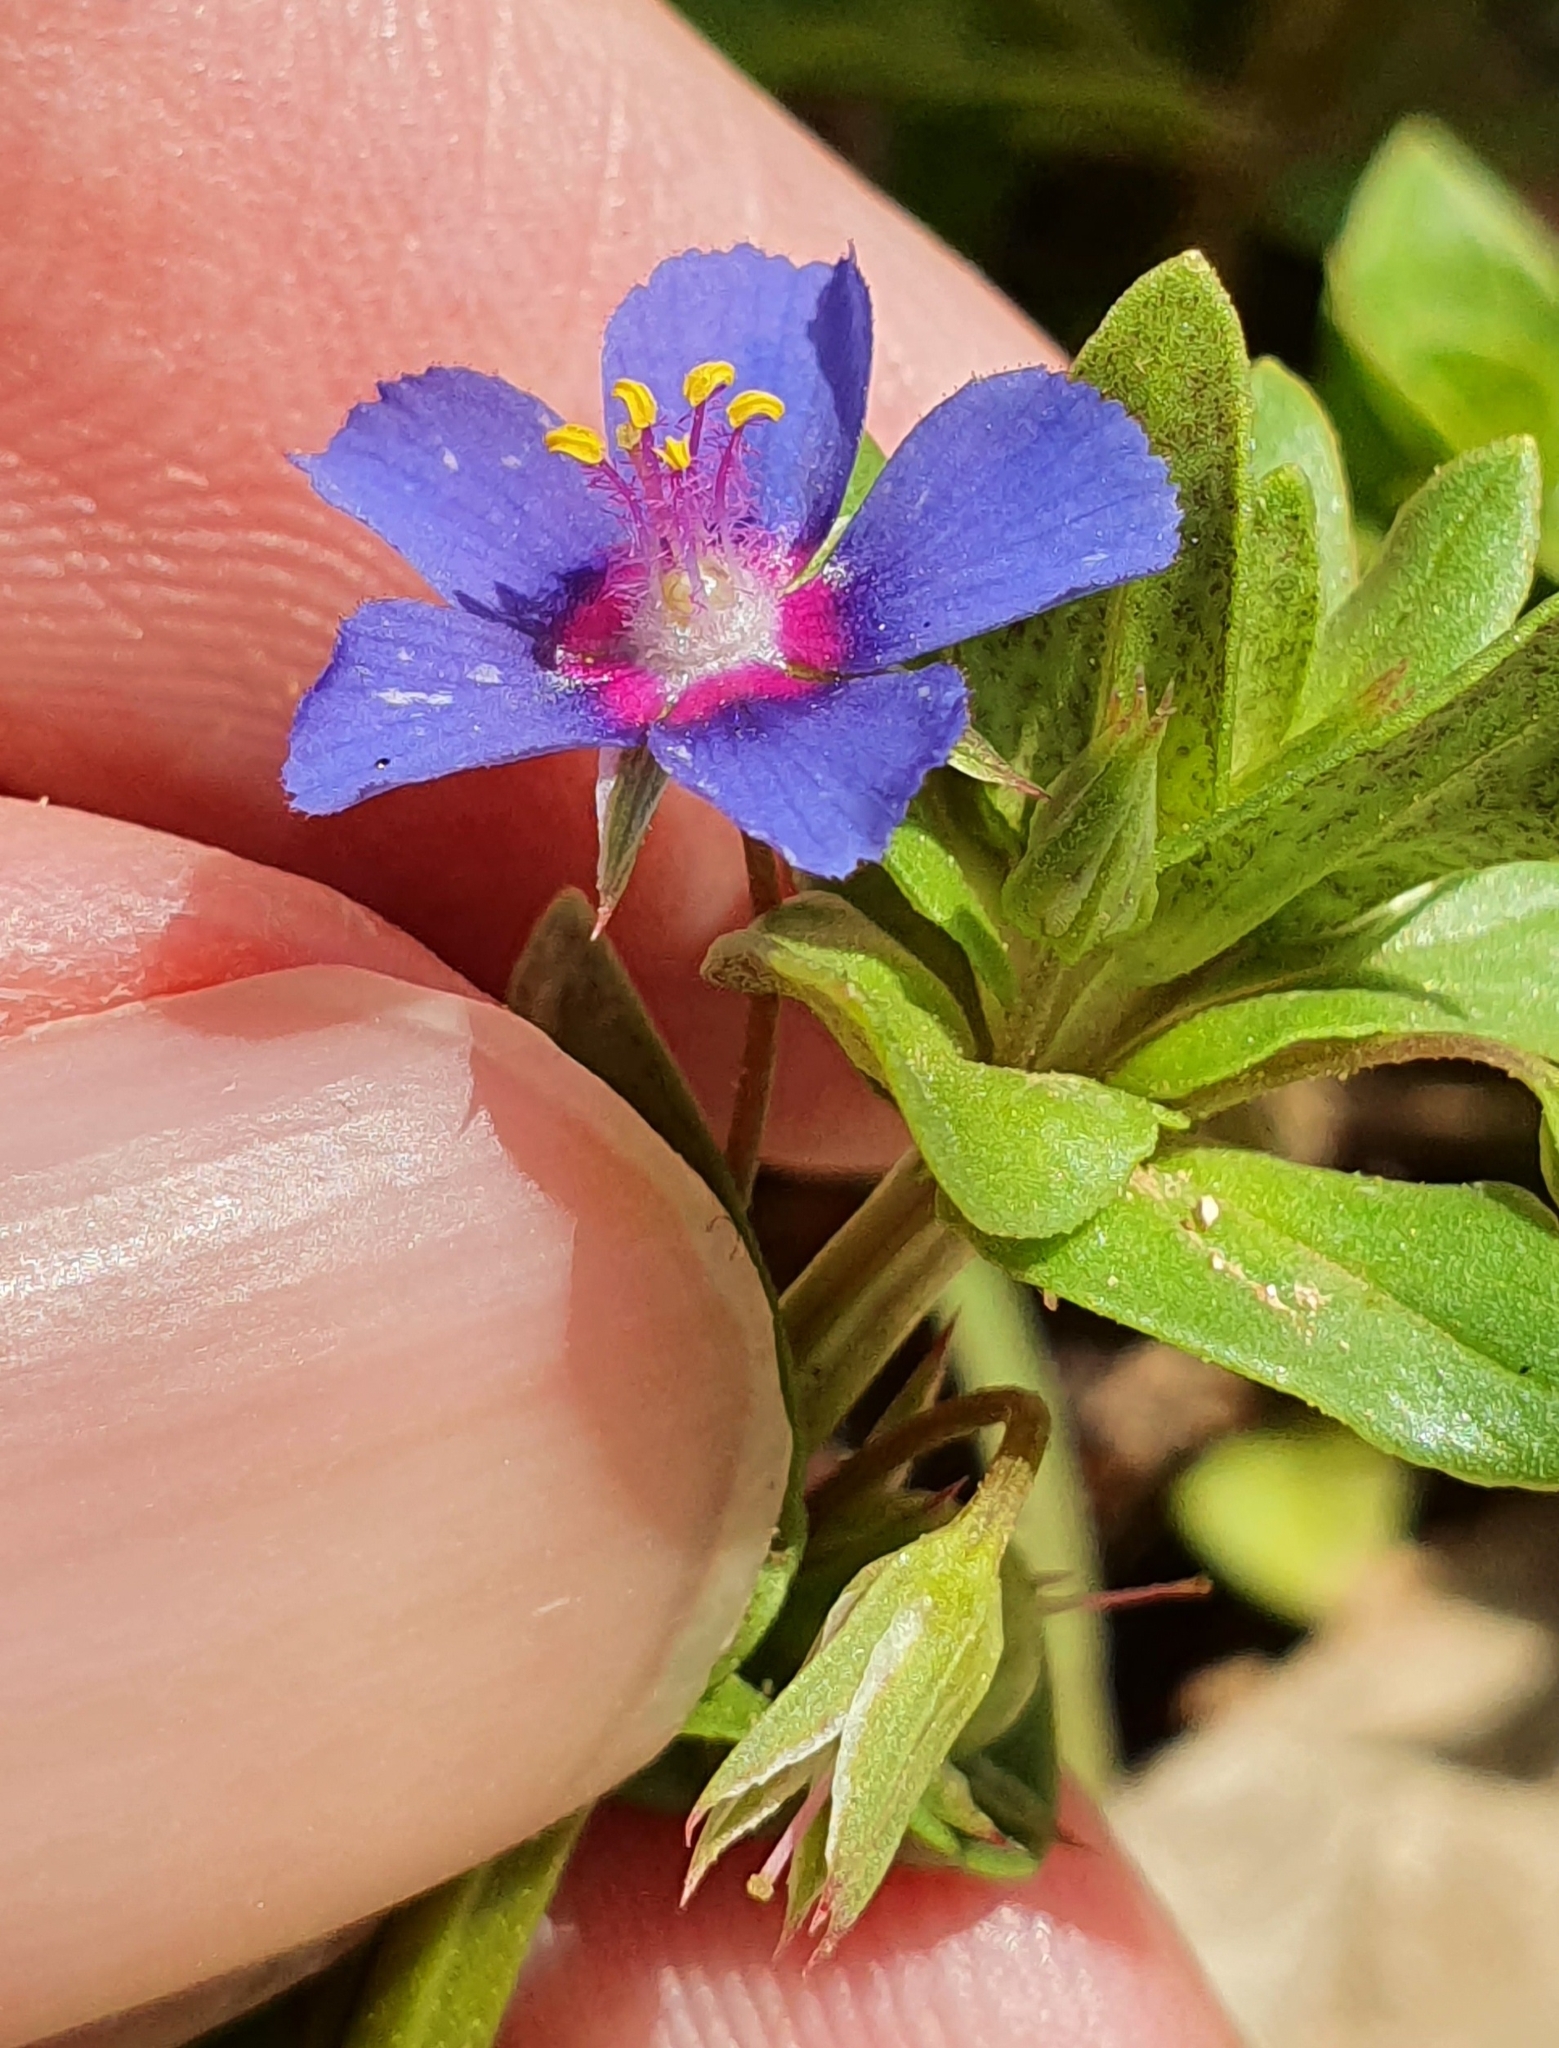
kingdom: Plantae
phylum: Tracheophyta
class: Magnoliopsida
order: Ericales
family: Primulaceae
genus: Lysimachia
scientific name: Lysimachia loeflingii
